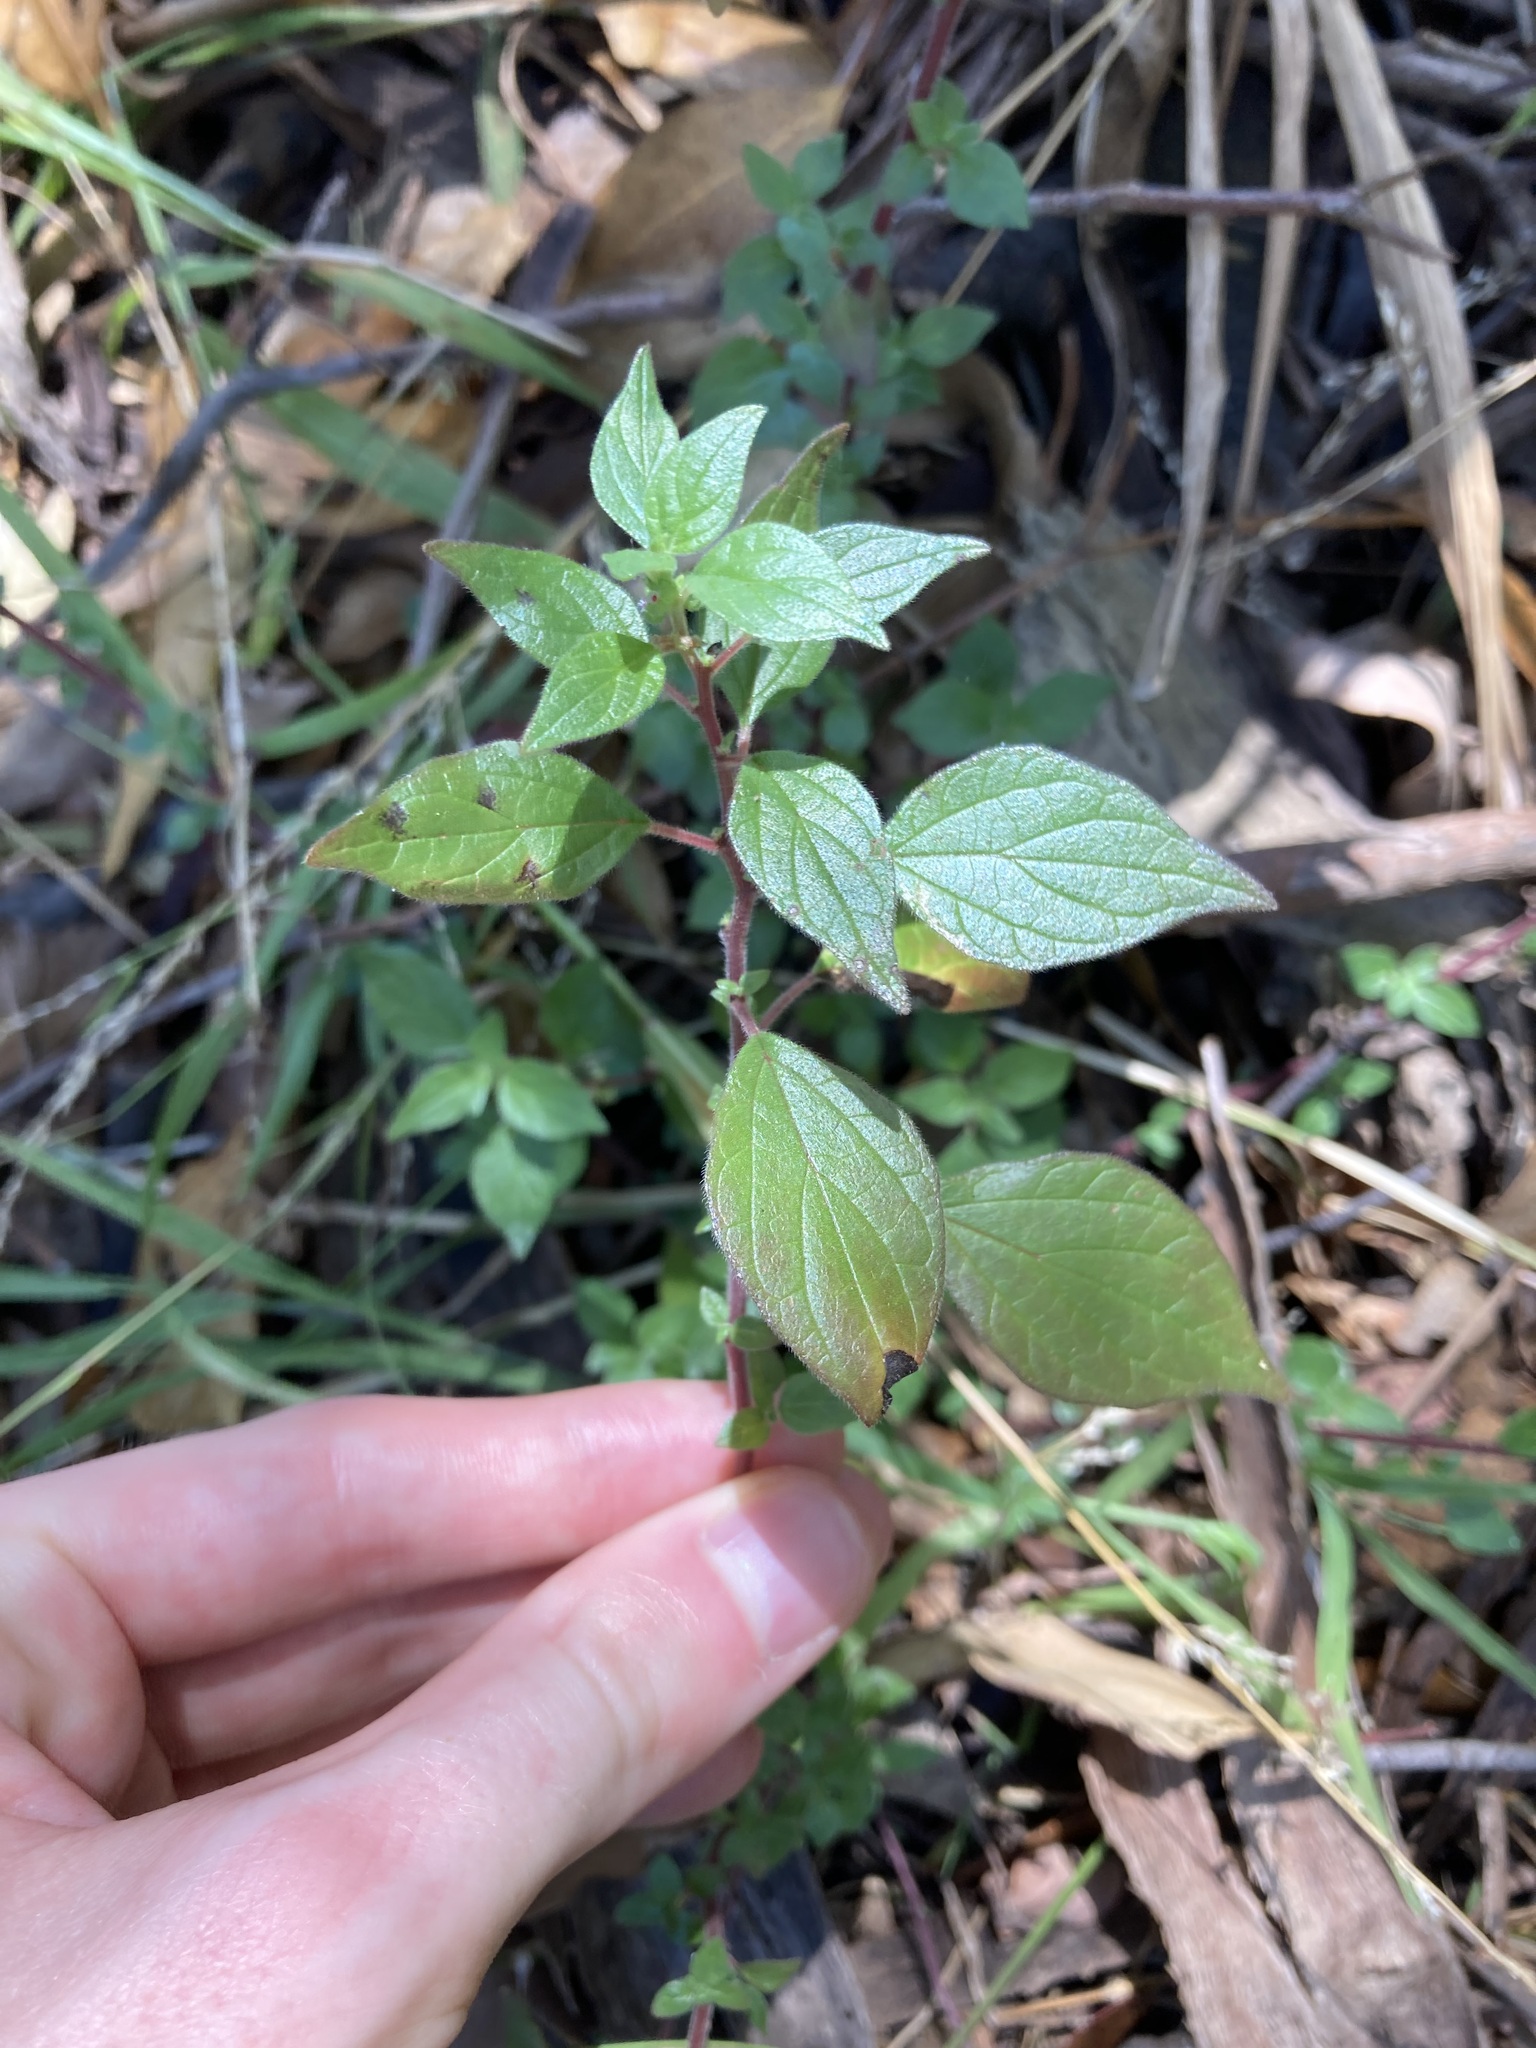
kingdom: Plantae
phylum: Tracheophyta
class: Magnoliopsida
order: Rosales
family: Urticaceae
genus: Parietaria
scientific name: Parietaria judaica
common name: Pellitory-of-the-wall
